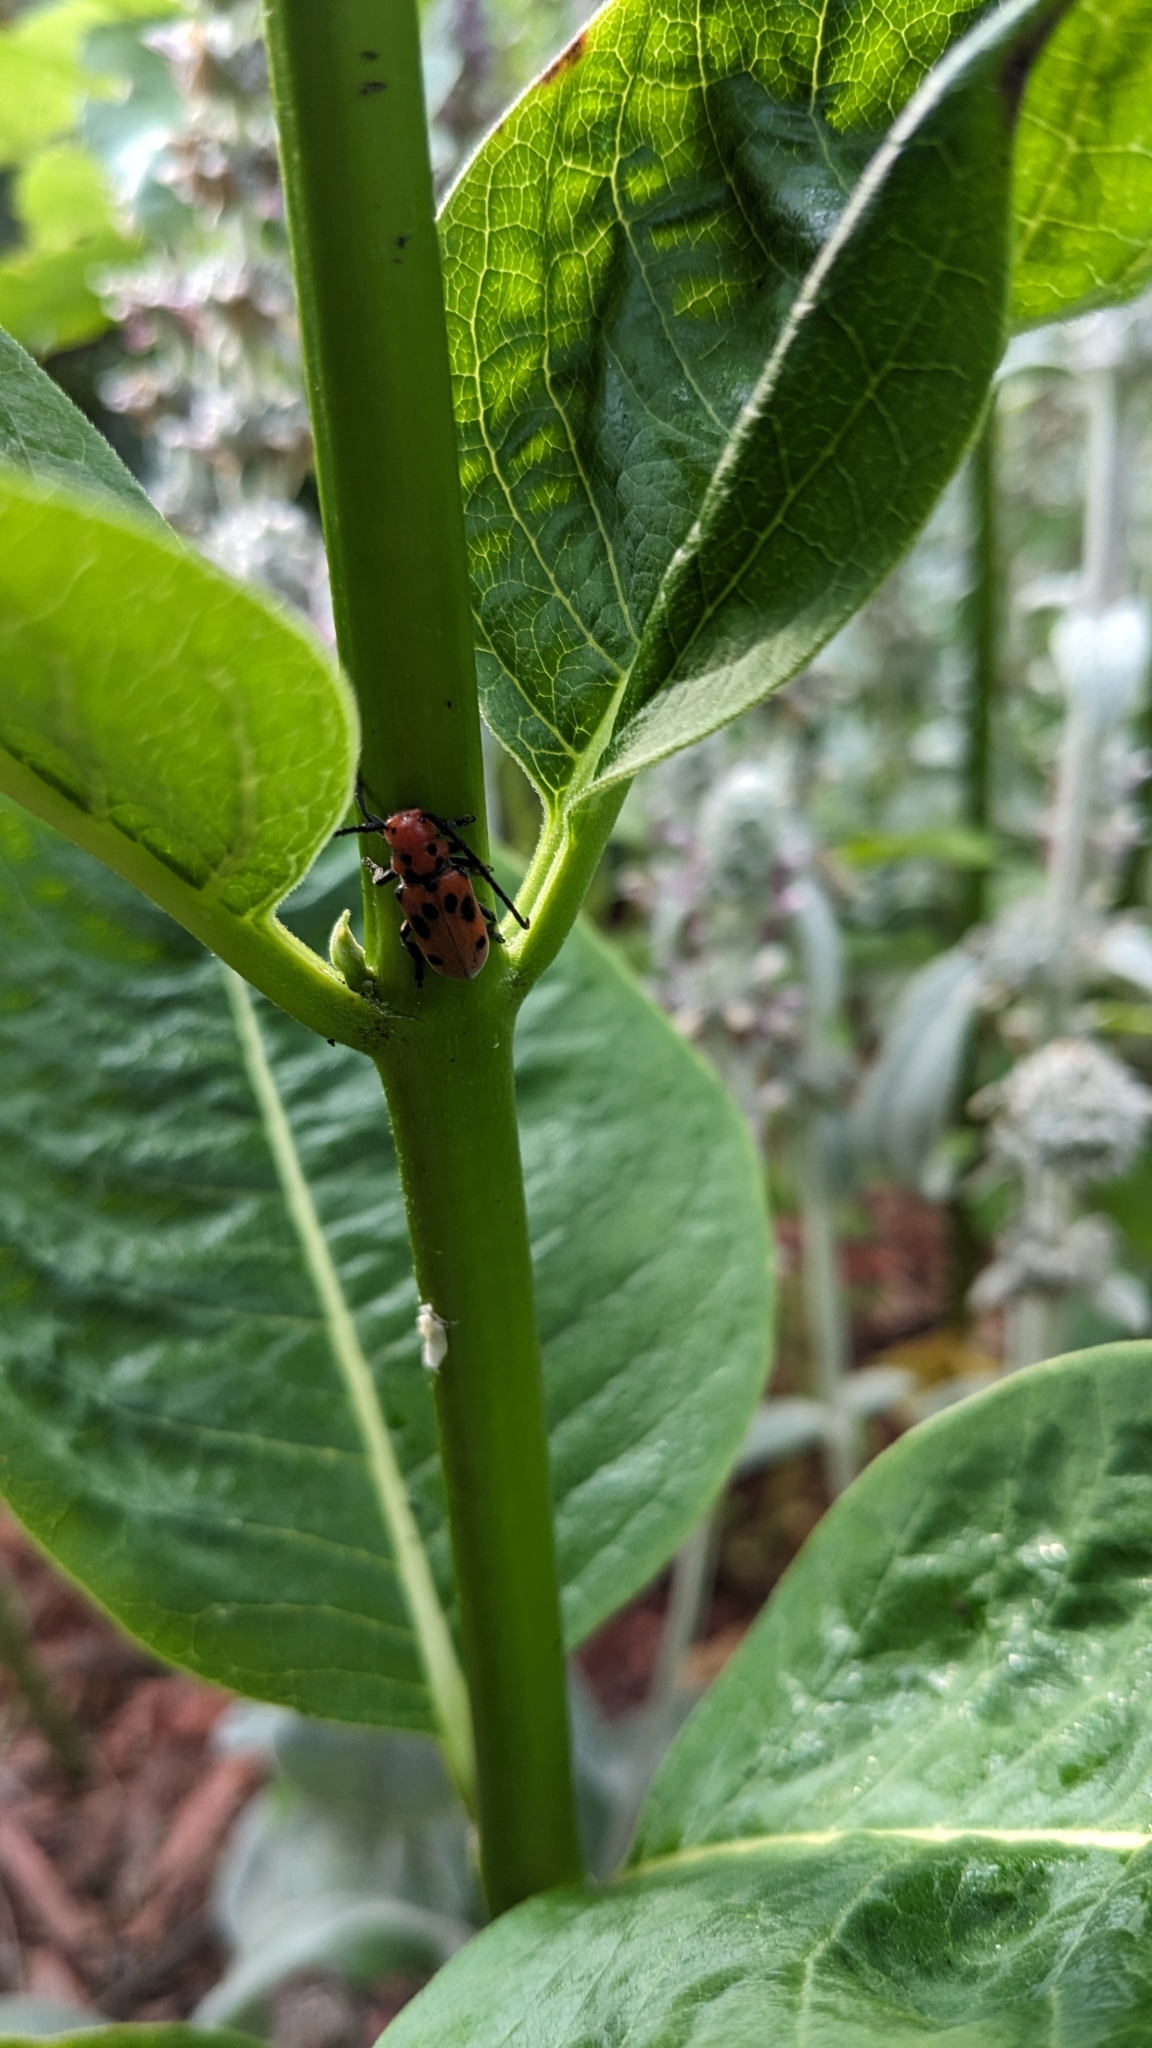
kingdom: Animalia
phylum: Arthropoda
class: Insecta
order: Coleoptera
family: Cerambycidae
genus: Tetraopes
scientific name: Tetraopes tetrophthalmus
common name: Red milkweed beetle
